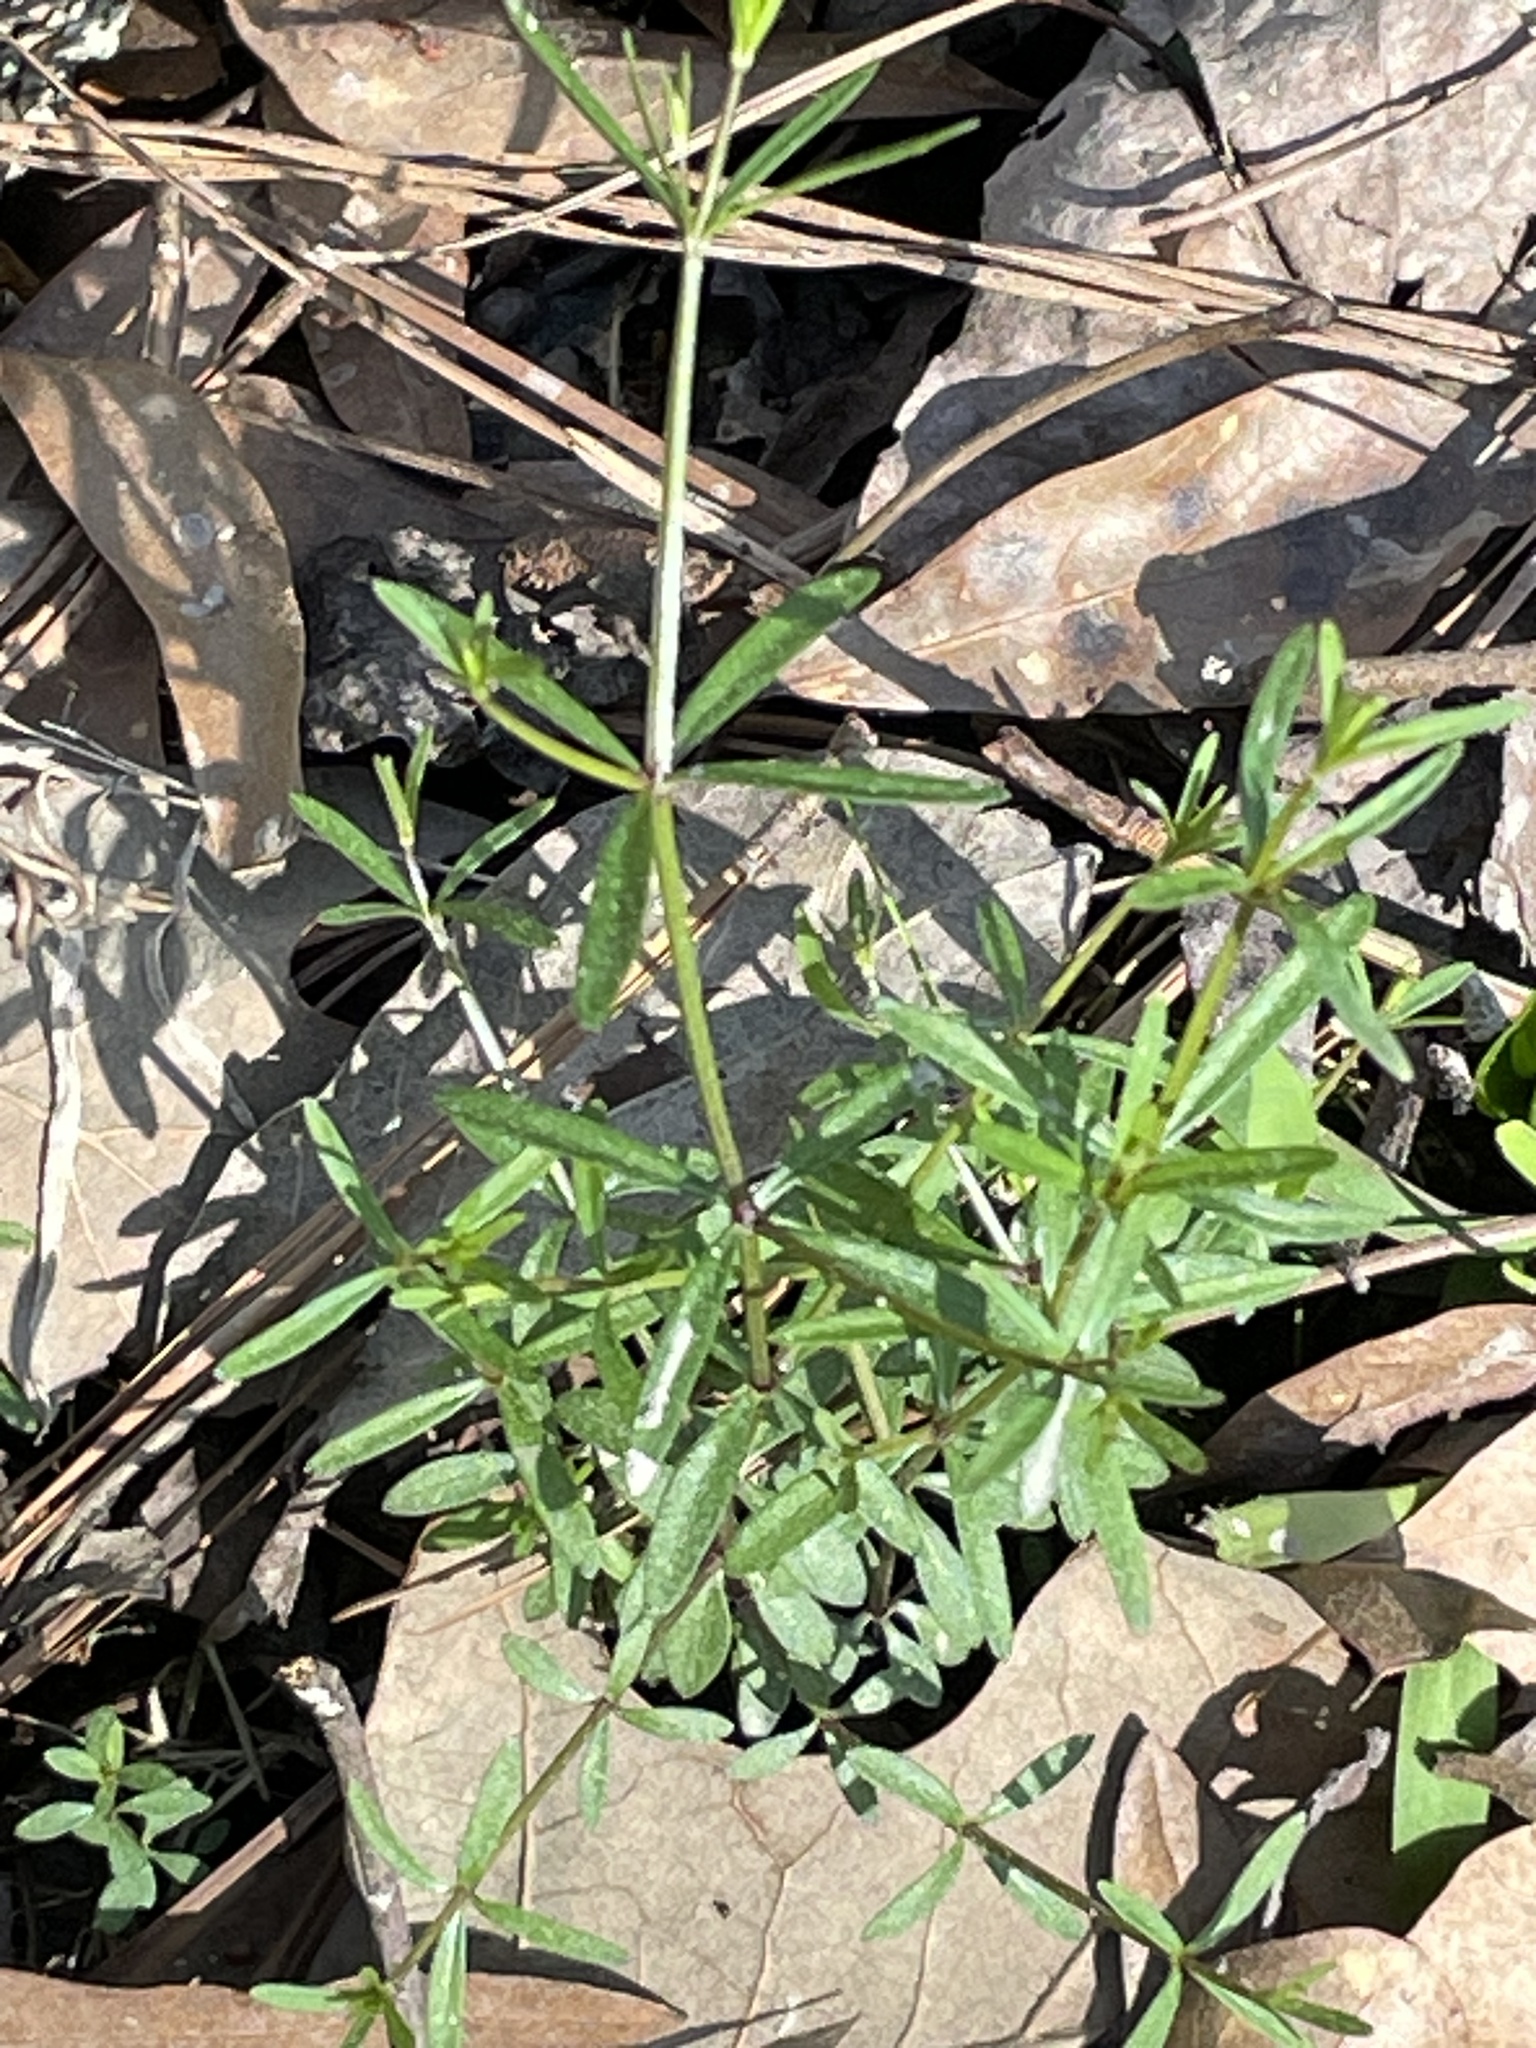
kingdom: Plantae
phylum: Tracheophyta
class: Magnoliopsida
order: Gentianales
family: Rubiaceae
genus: Galium
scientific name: Galium uniflorum
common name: One-flower bedstraw
